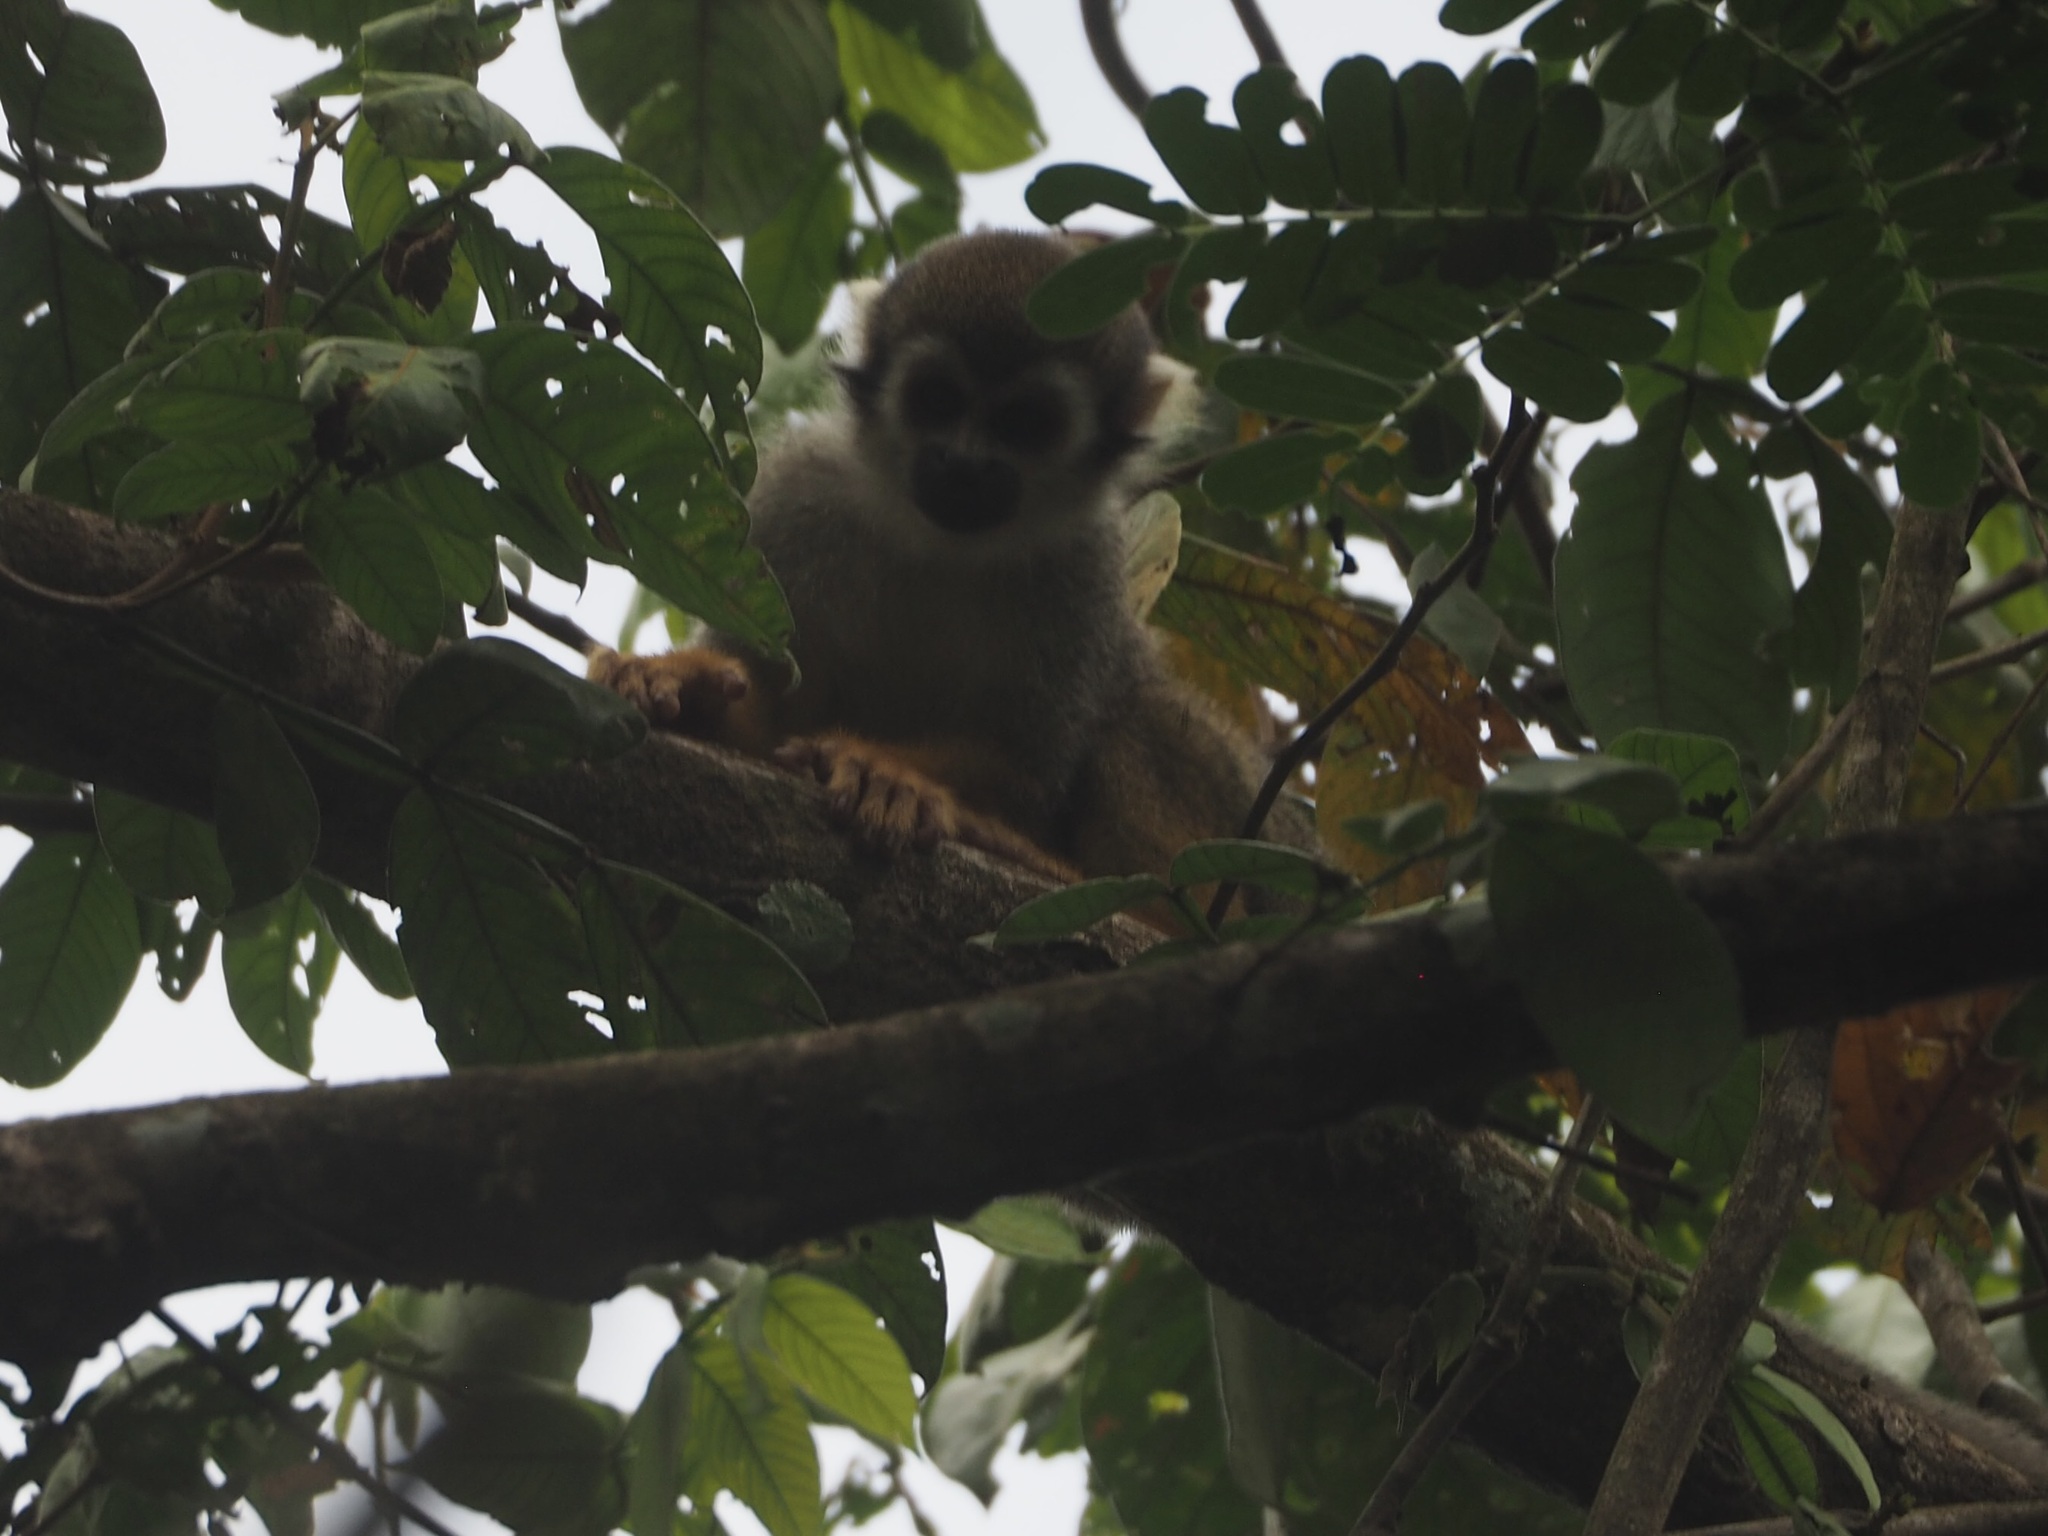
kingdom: Animalia
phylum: Chordata
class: Mammalia
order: Primates
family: Cebidae
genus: Saimiri
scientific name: Saimiri sciureus
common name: Common squirrel monkey
